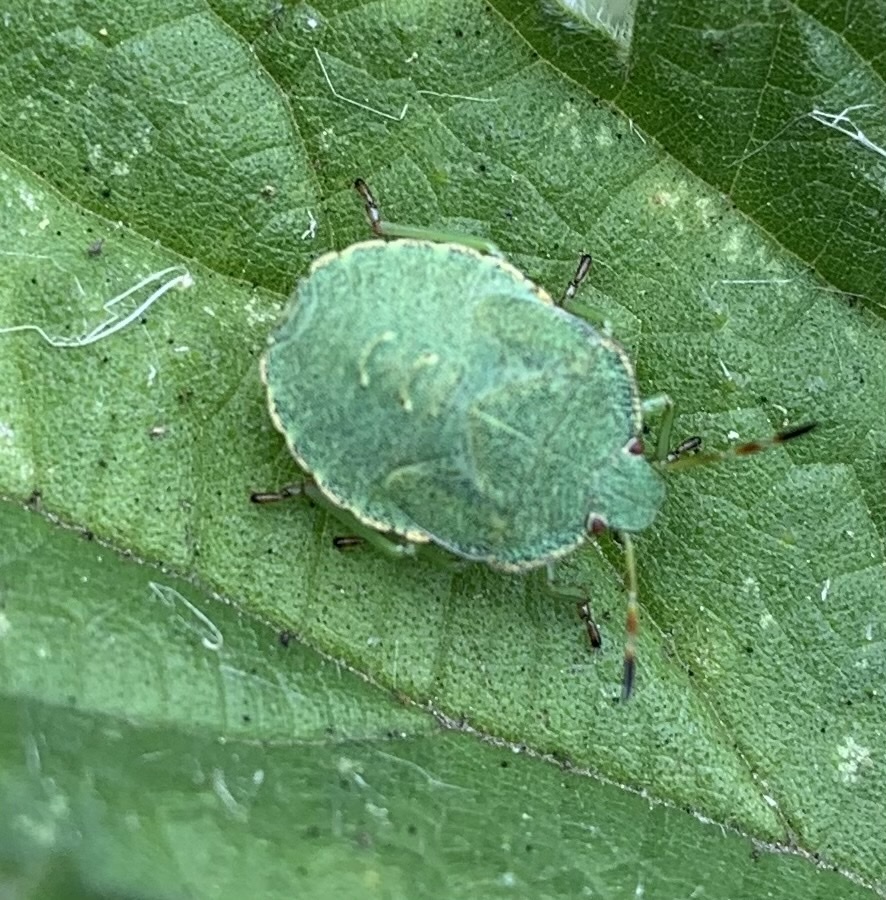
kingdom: Animalia
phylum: Arthropoda
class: Insecta
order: Hemiptera
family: Pentatomidae
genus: Palomena
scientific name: Palomena prasina
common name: Green shieldbug
